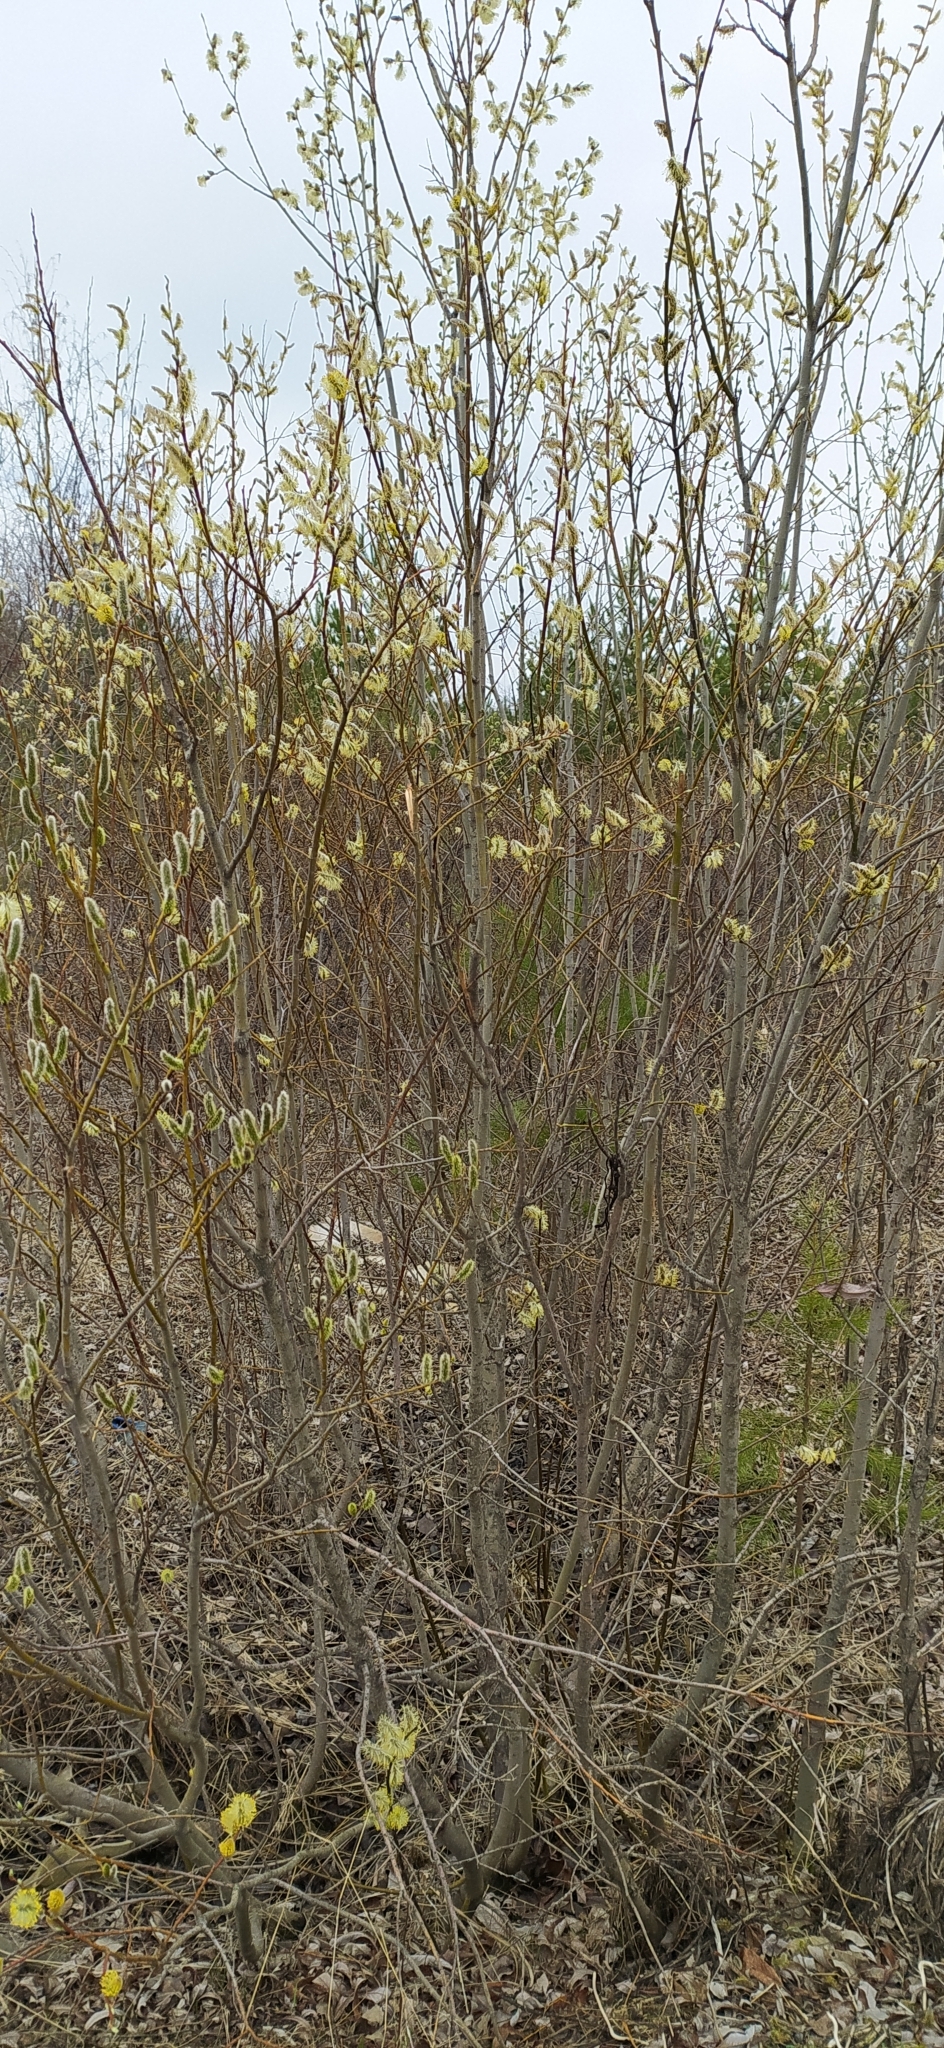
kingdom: Plantae
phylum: Tracheophyta
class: Magnoliopsida
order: Malpighiales
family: Salicaceae
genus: Salix
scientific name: Salix caprea
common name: Goat willow
